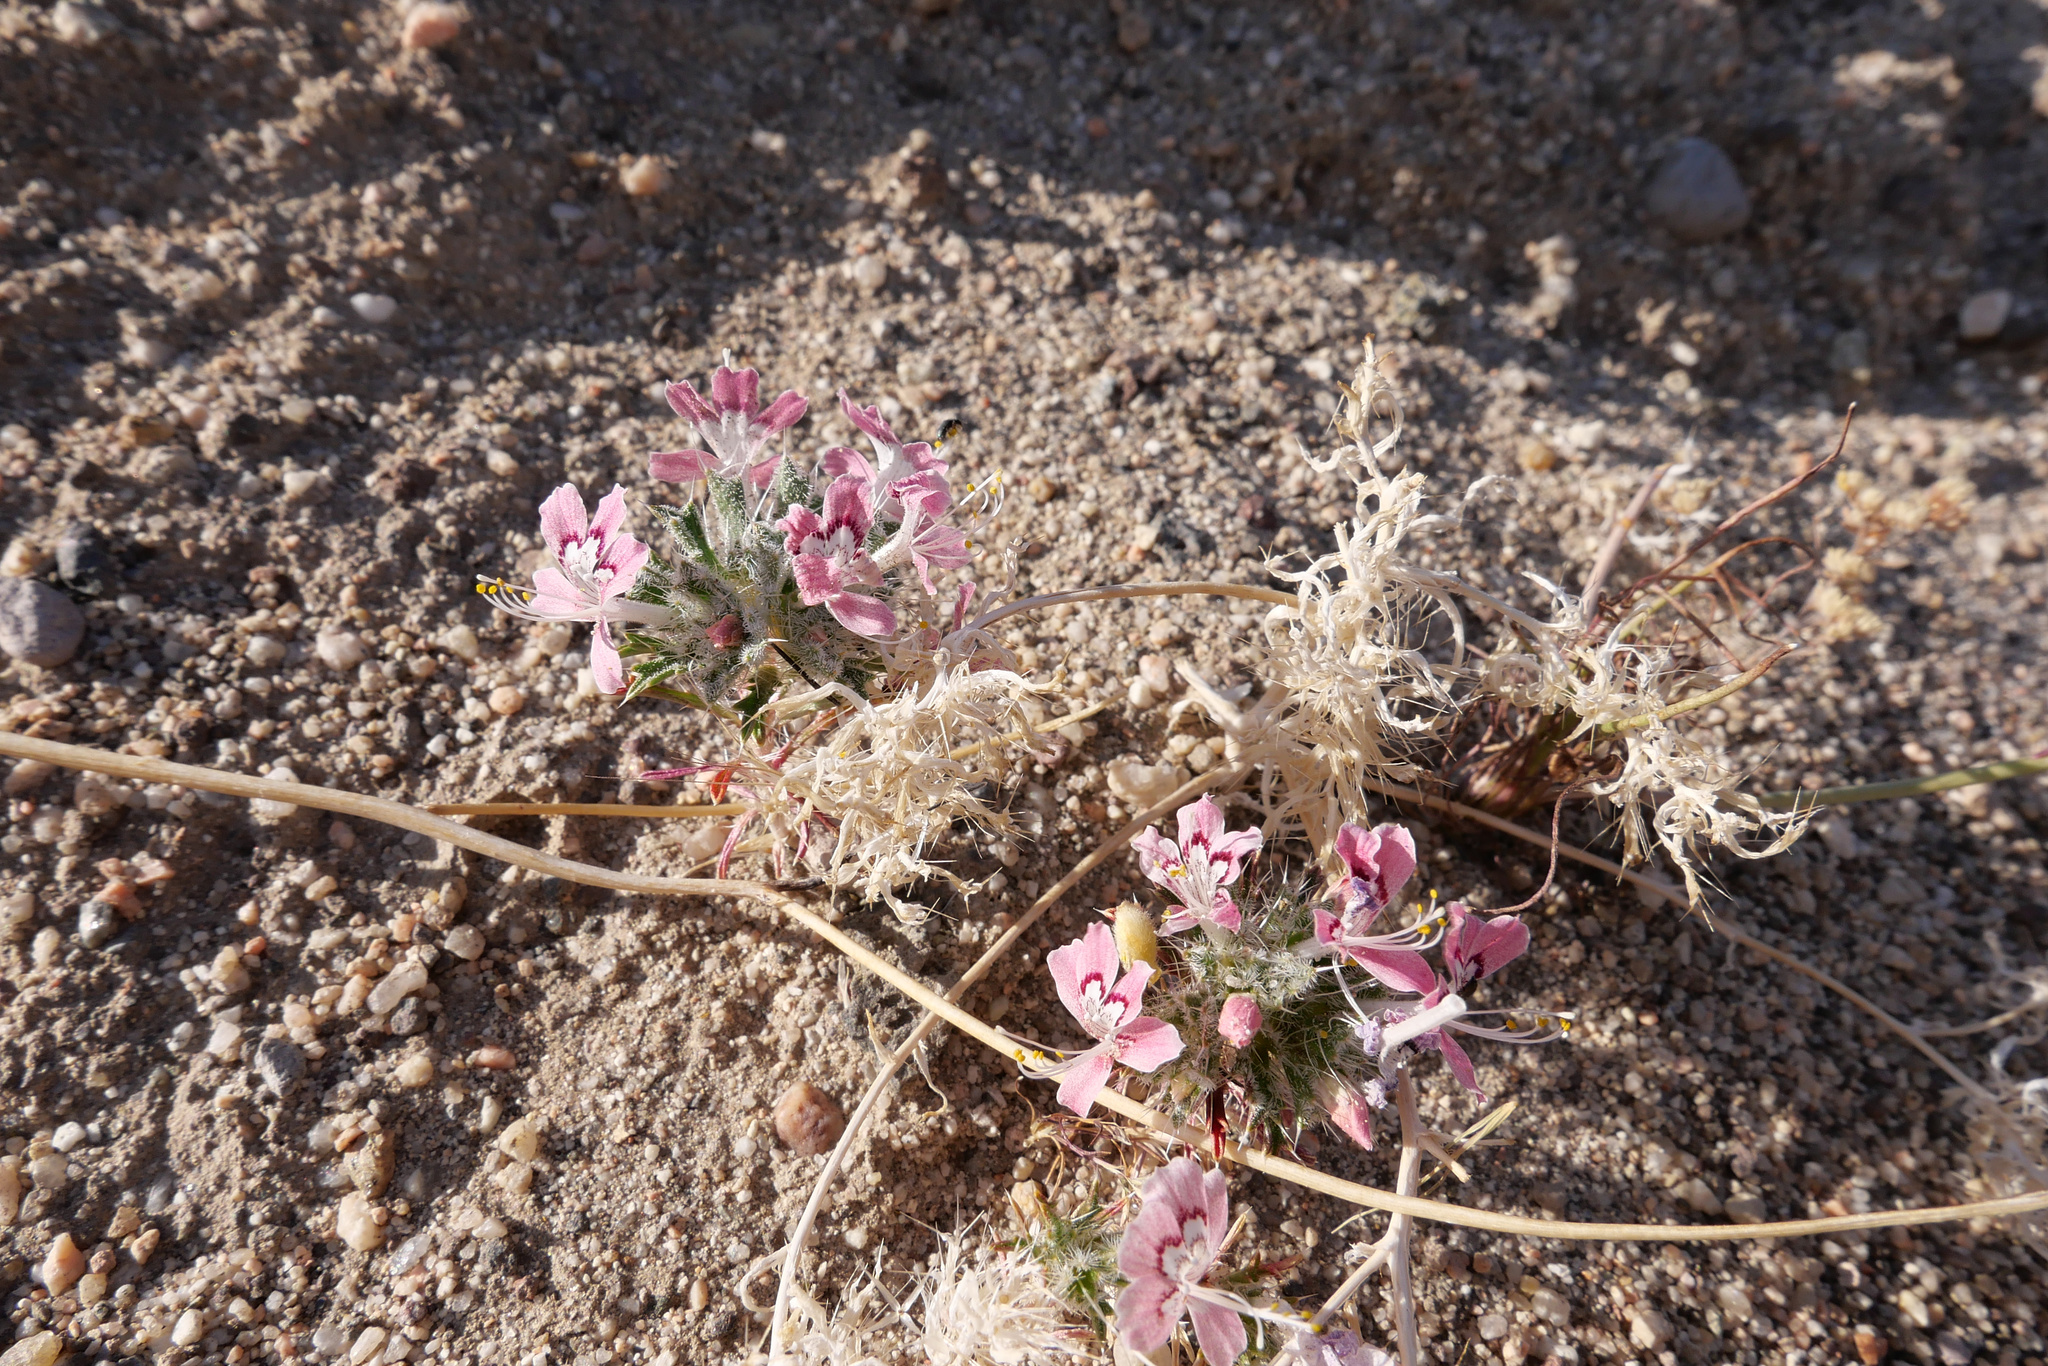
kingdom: Plantae
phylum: Tracheophyta
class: Magnoliopsida
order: Ericales
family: Polemoniaceae
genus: Loeseliastrum
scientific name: Loeseliastrum matthewsii
